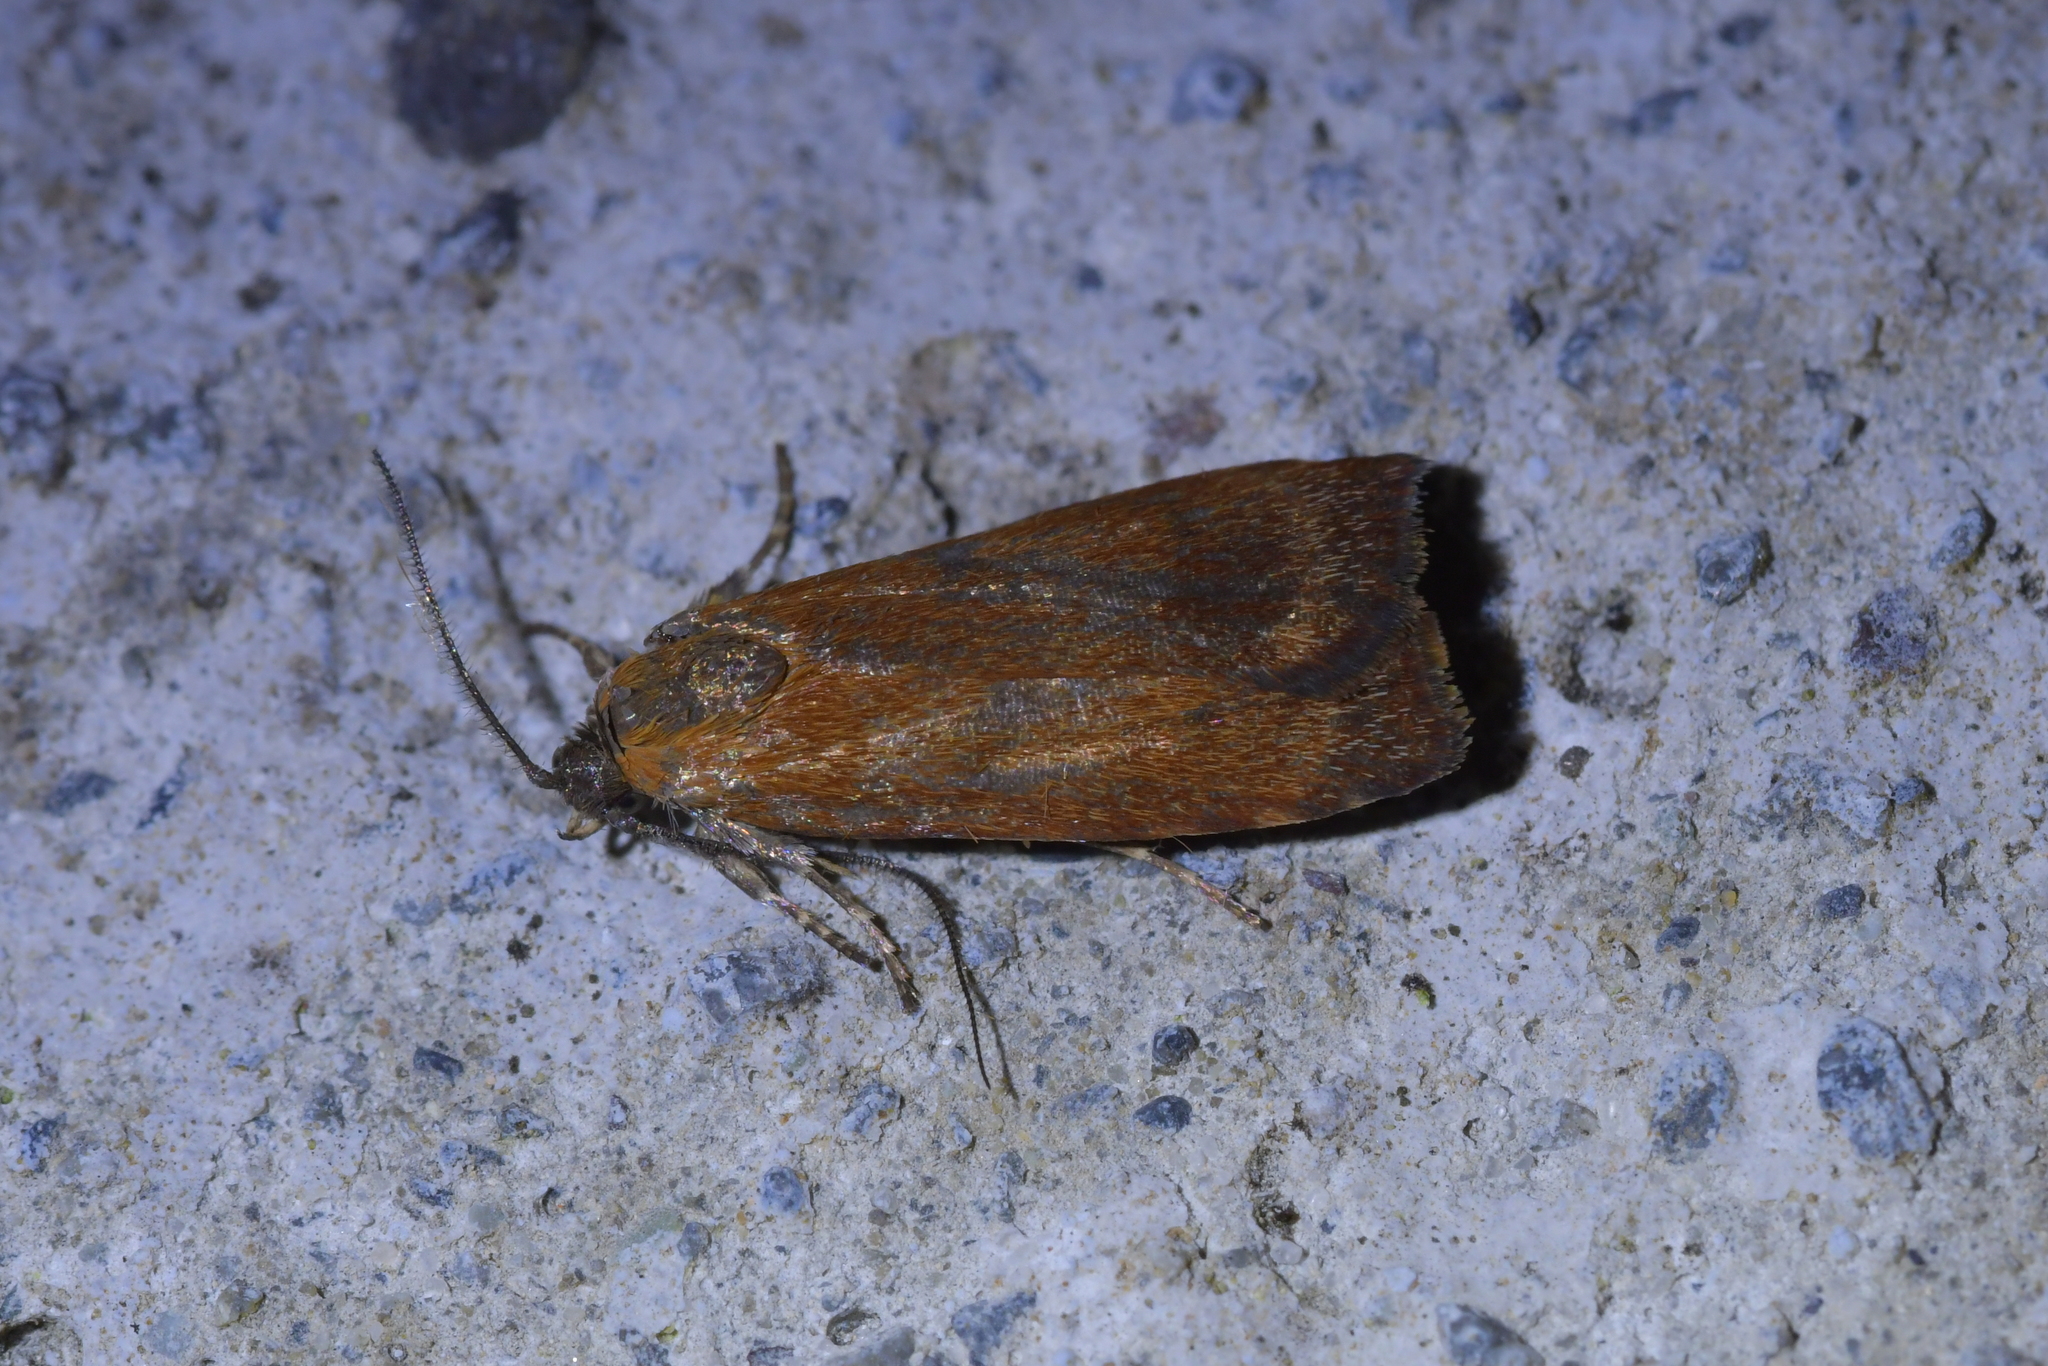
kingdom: Animalia
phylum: Arthropoda
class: Insecta
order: Lepidoptera
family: Oecophoridae
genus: Hierodoris
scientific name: Hierodoris
